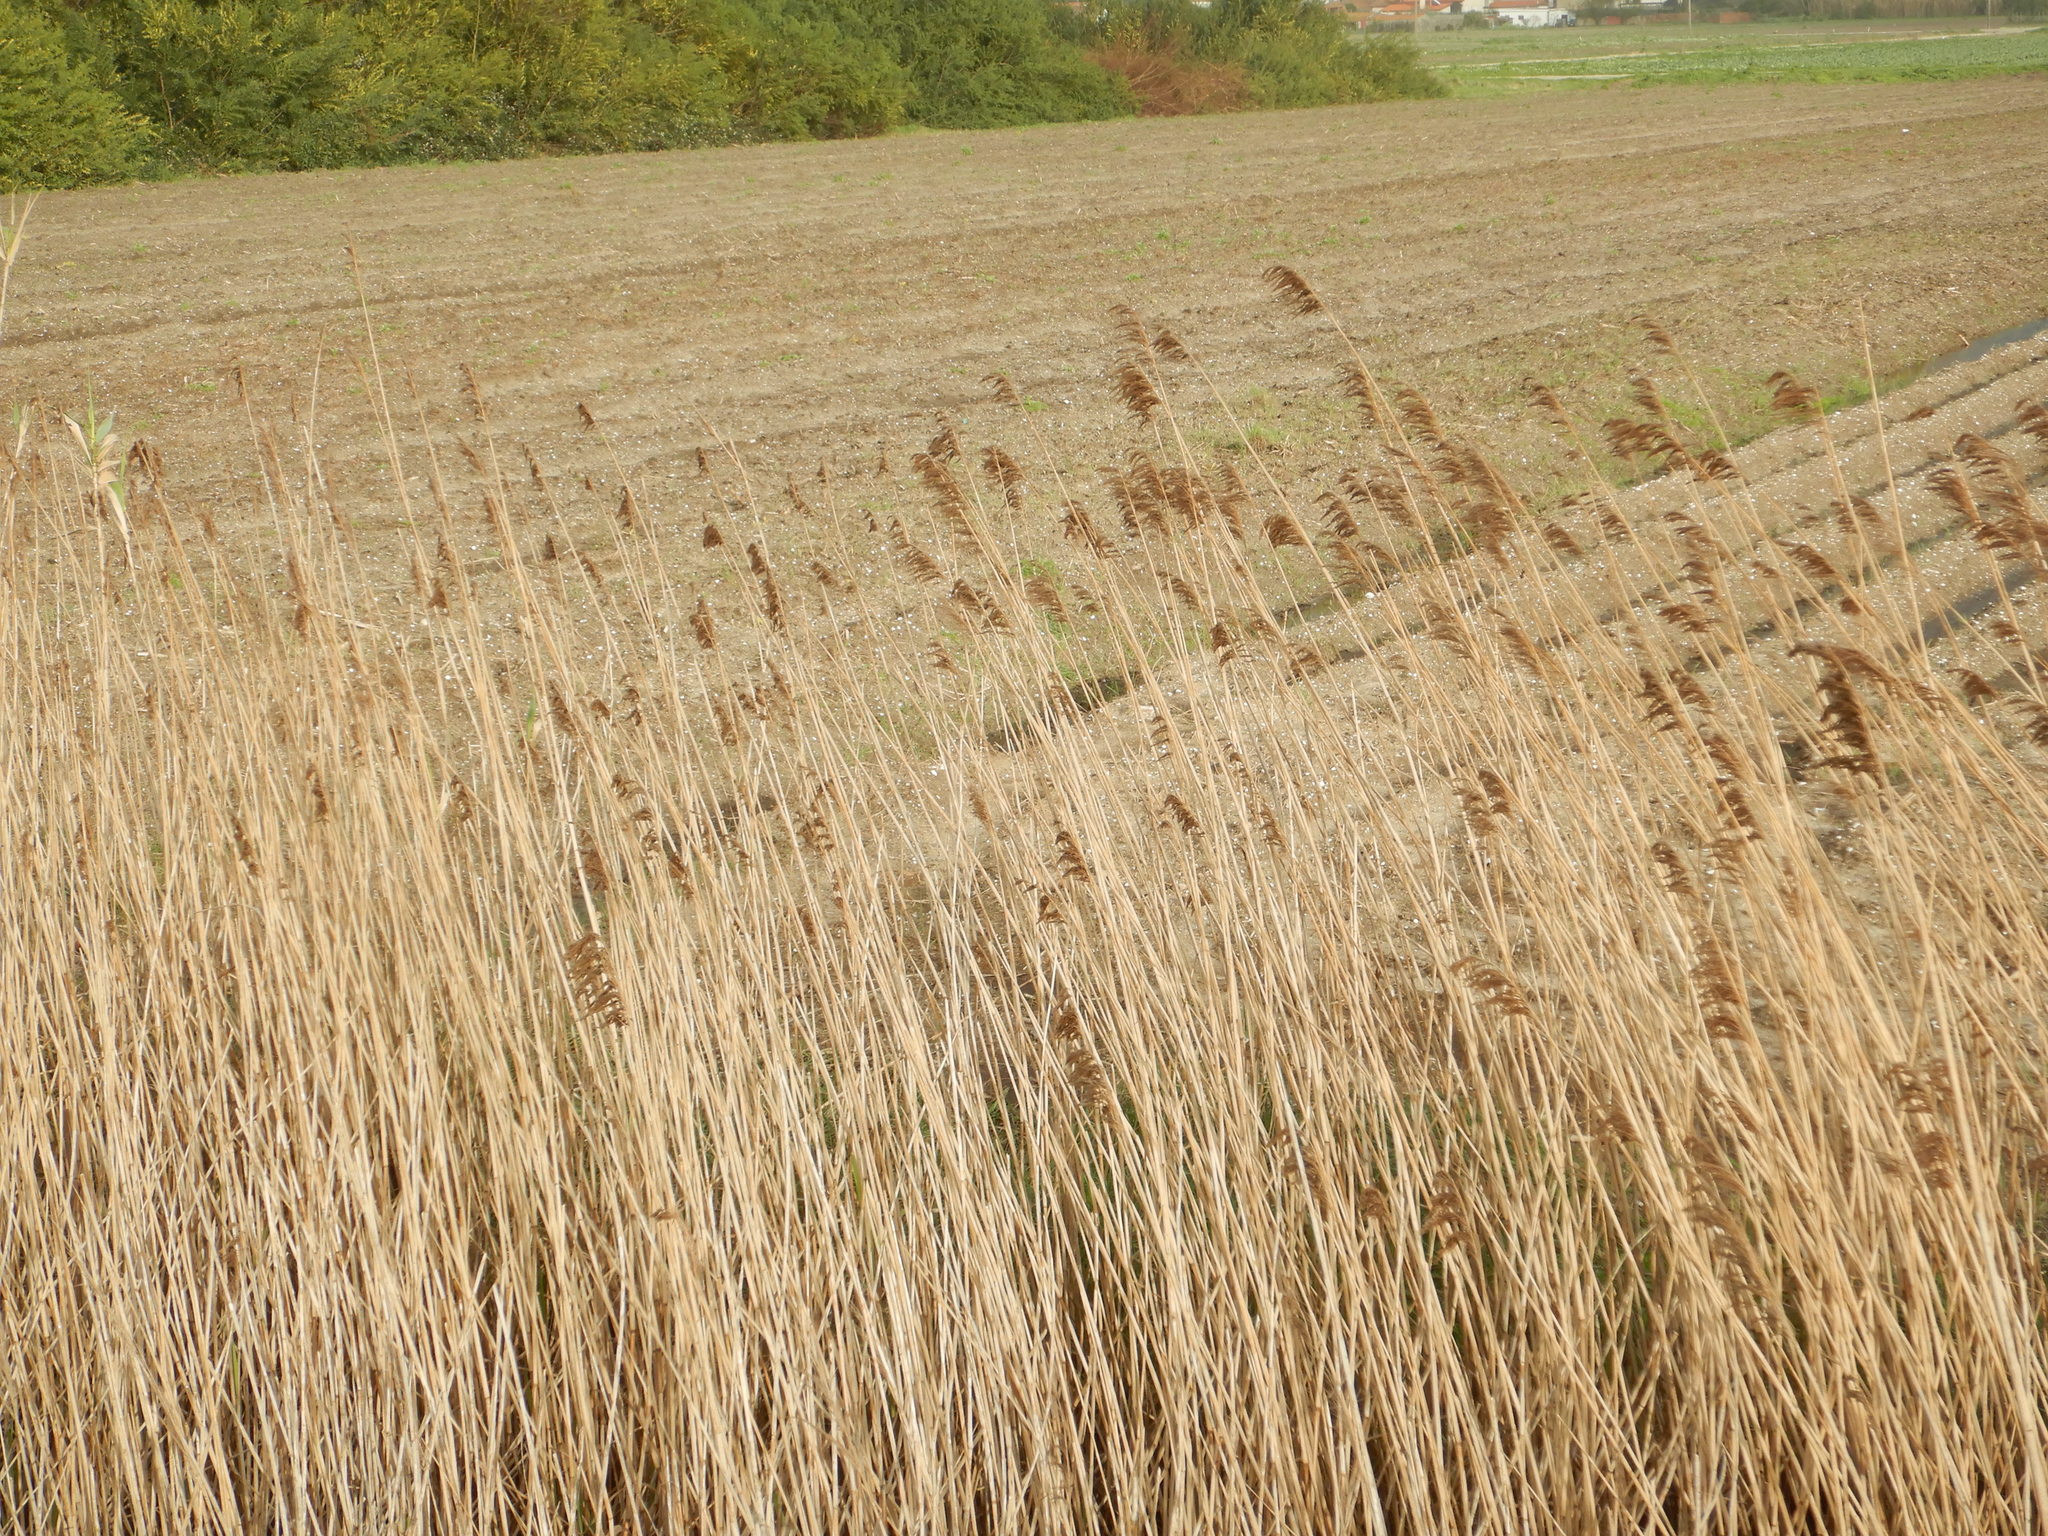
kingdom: Plantae
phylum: Tracheophyta
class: Liliopsida
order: Poales
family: Poaceae
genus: Phragmites
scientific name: Phragmites australis
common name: Common reed
